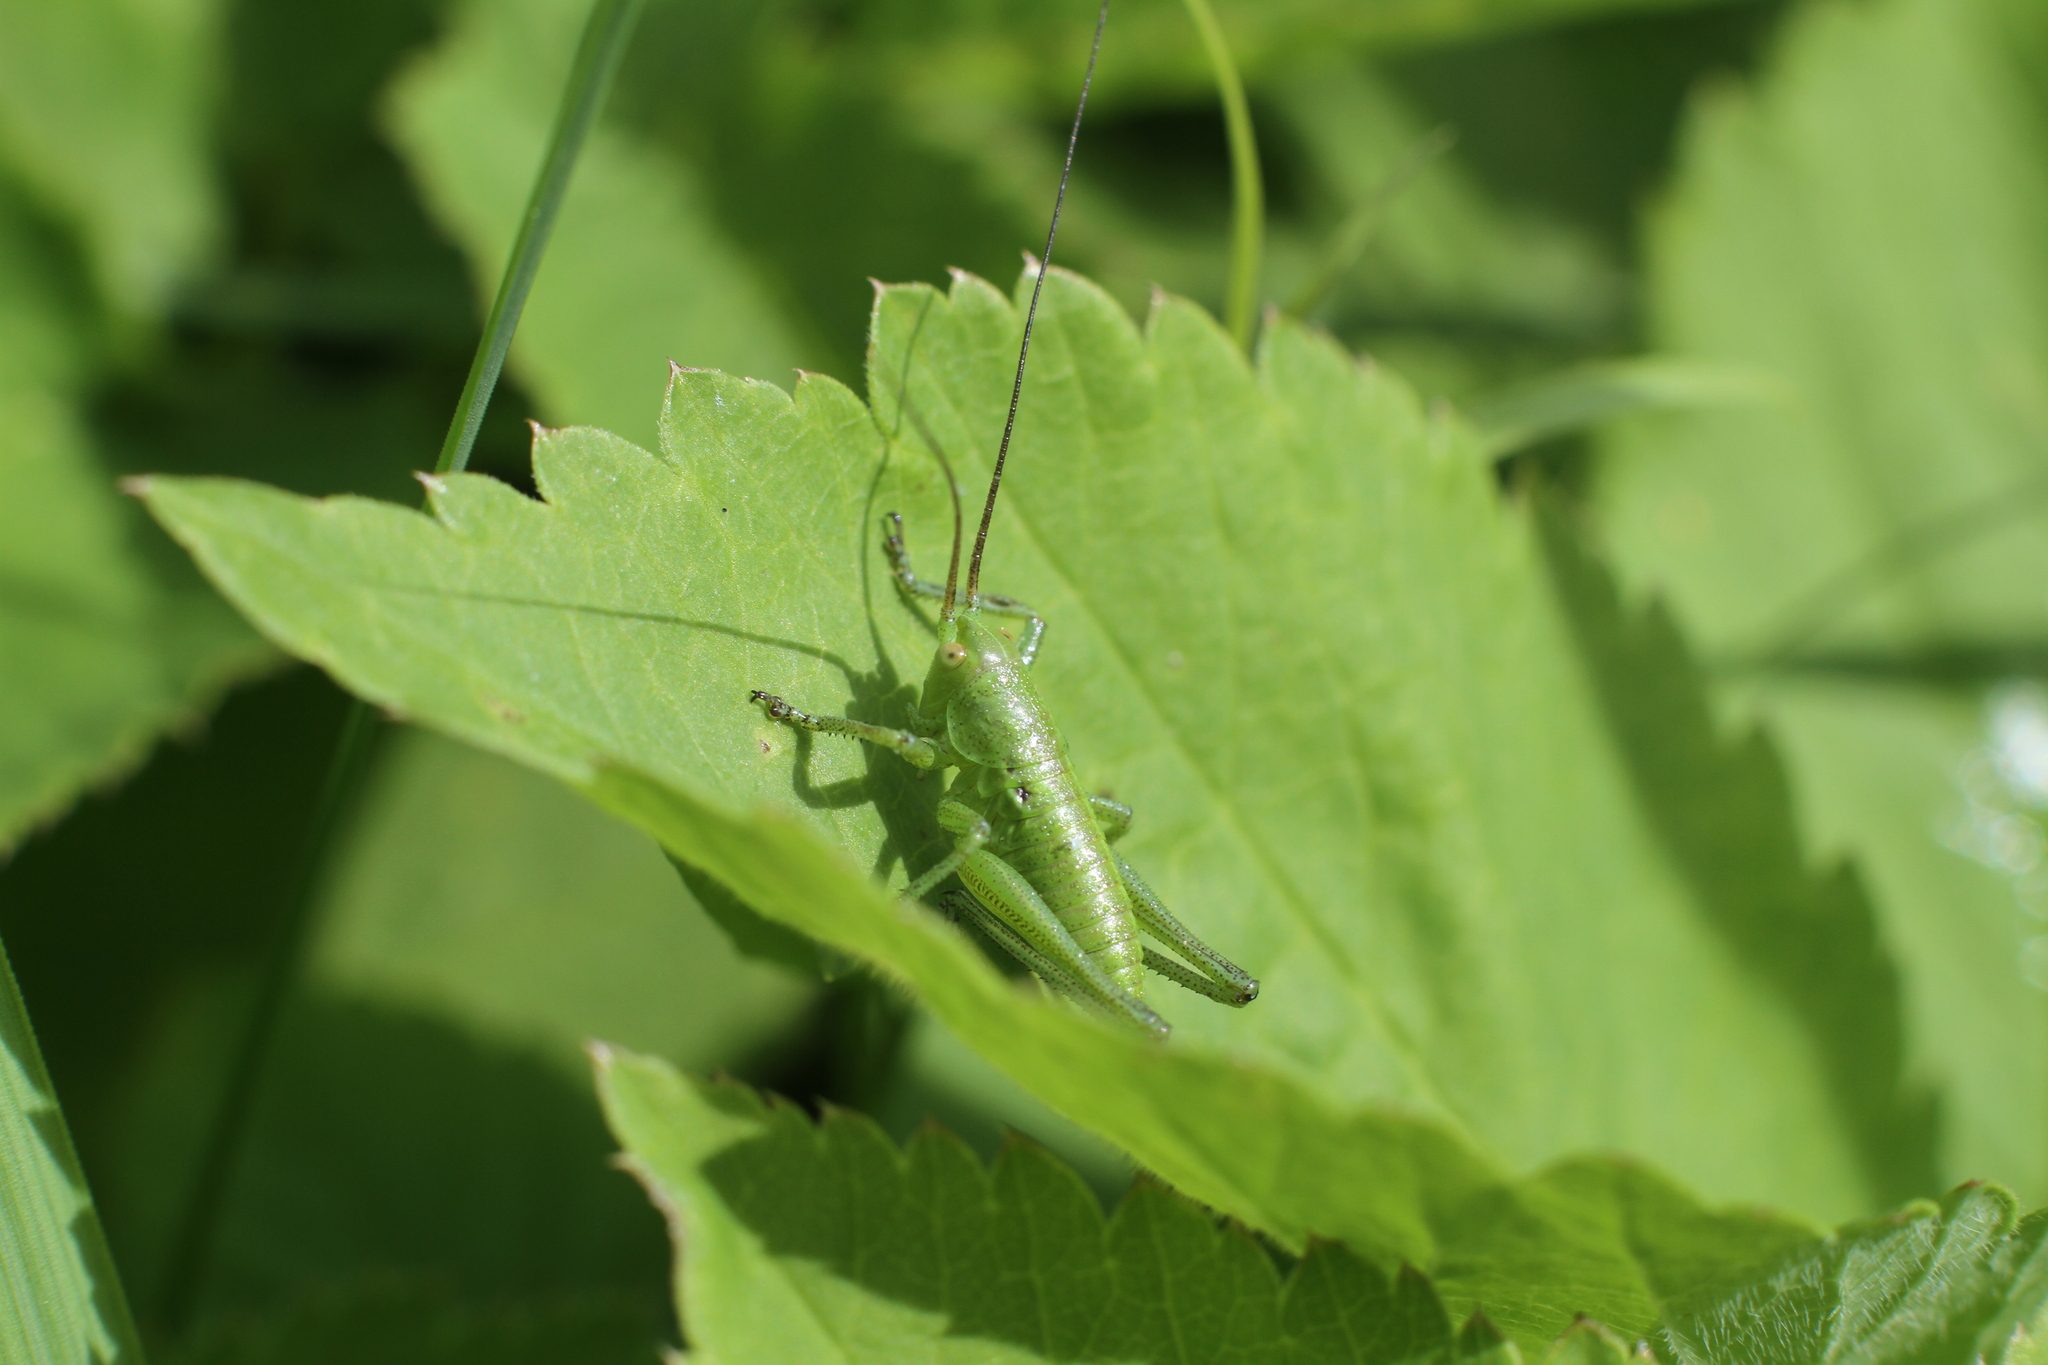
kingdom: Animalia
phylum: Arthropoda
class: Insecta
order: Orthoptera
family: Tettigoniidae
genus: Tettigonia
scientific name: Tettigonia
